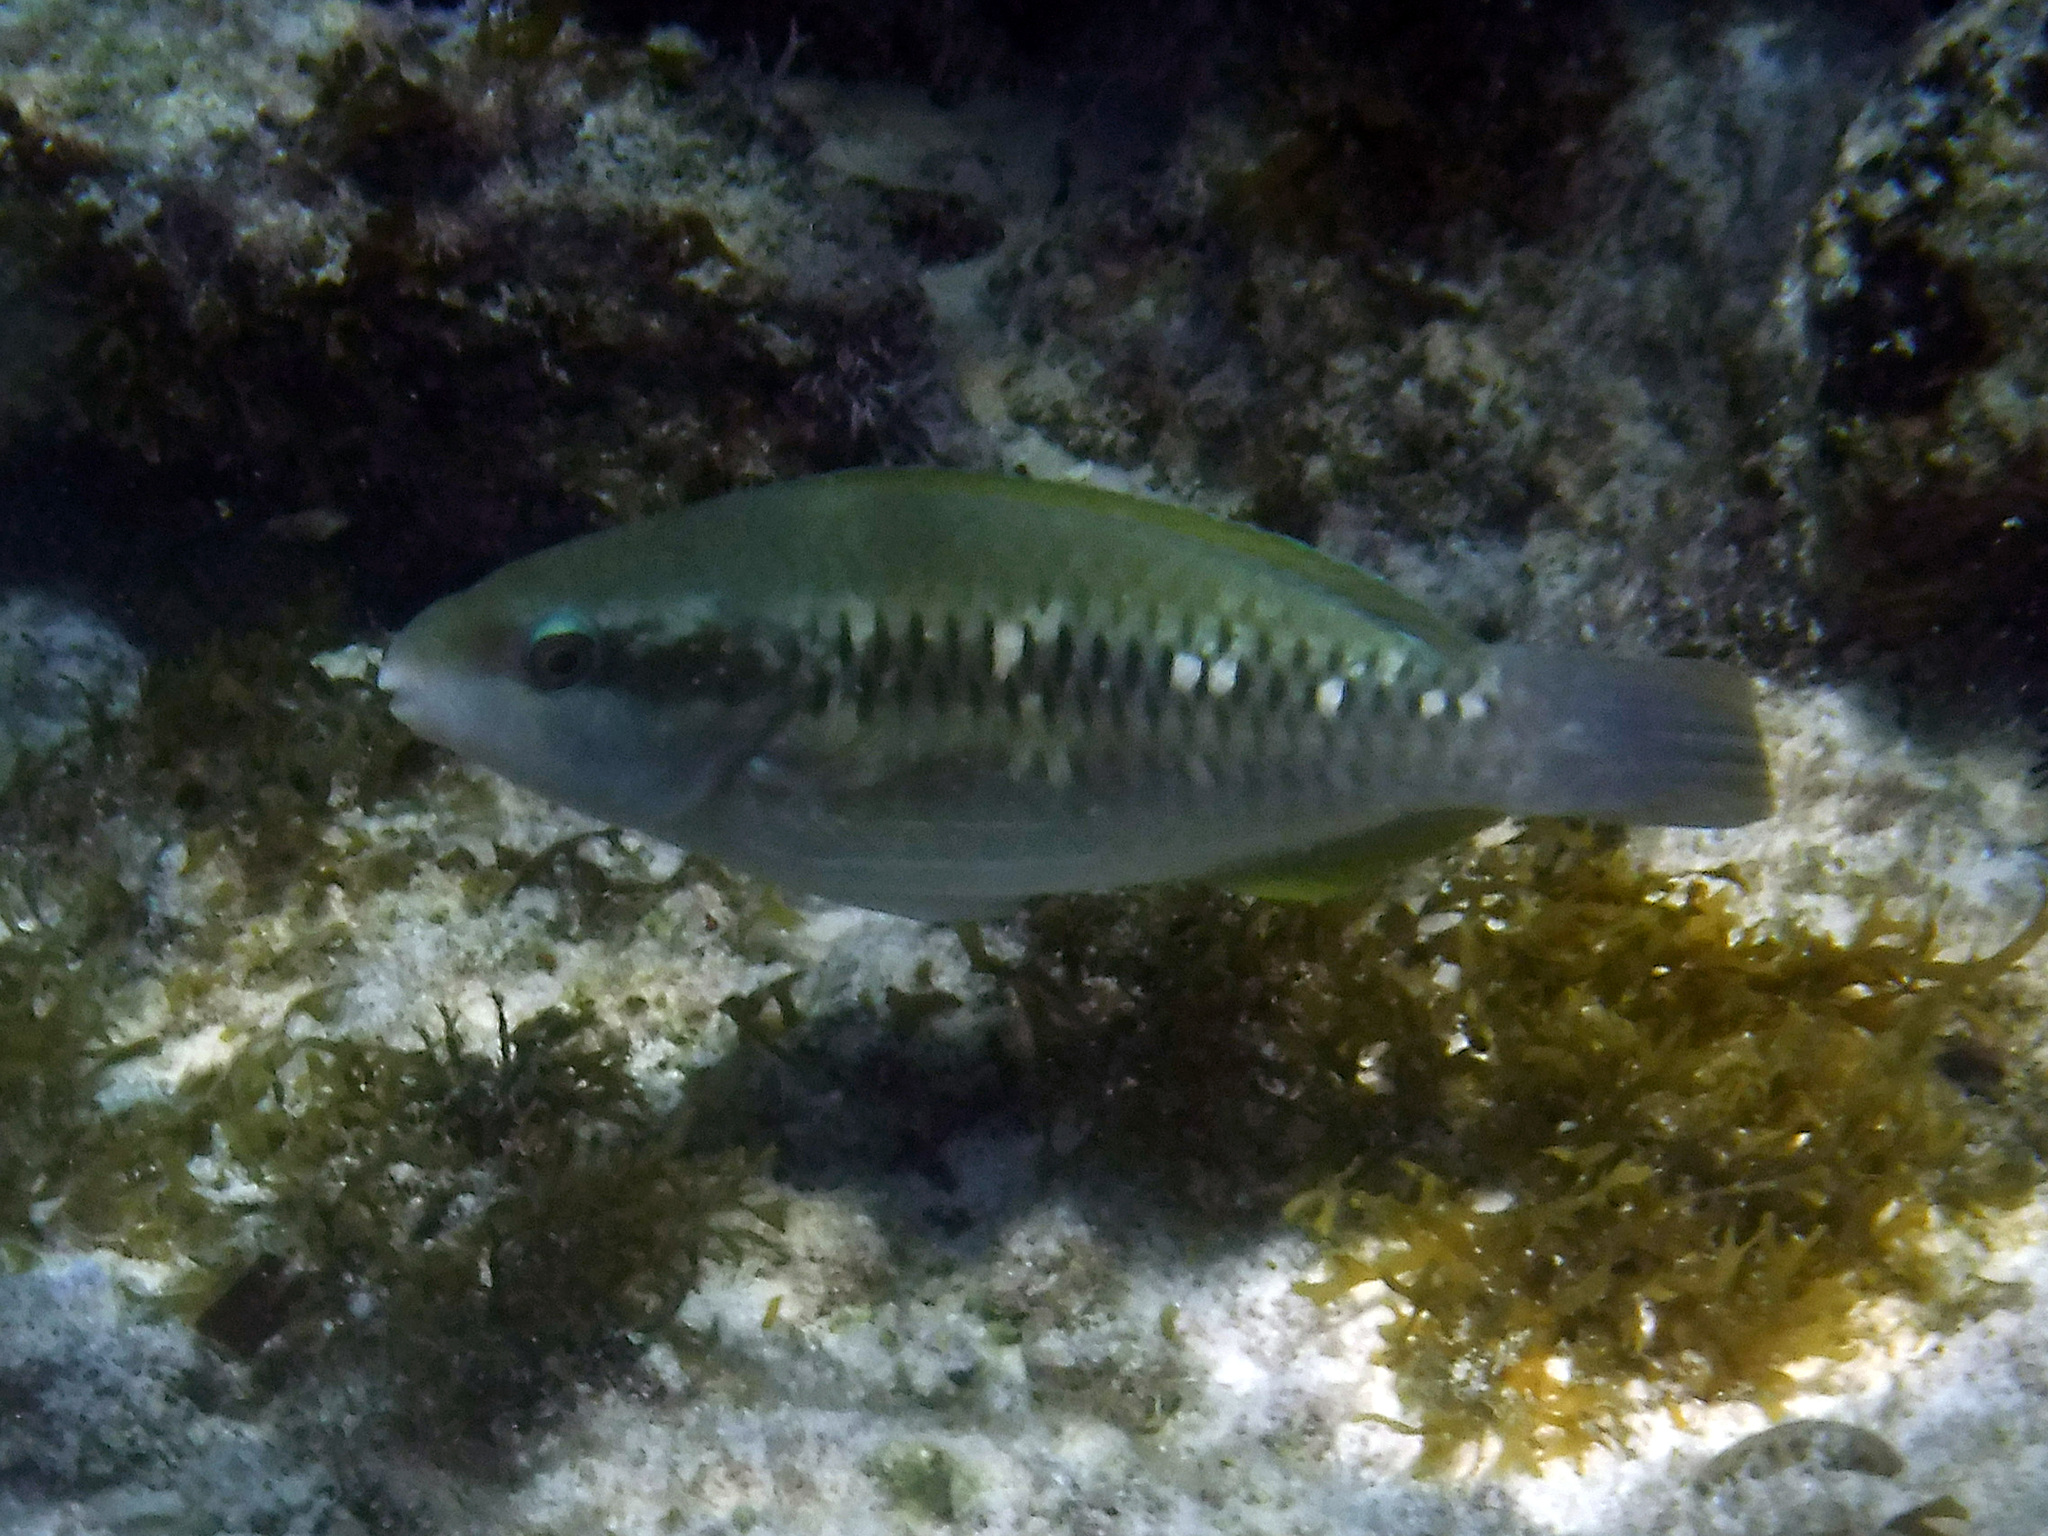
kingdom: Animalia
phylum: Chordata
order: Perciformes
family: Scaridae
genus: Scarus
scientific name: Scarus iseri
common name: Striped parrotfish
